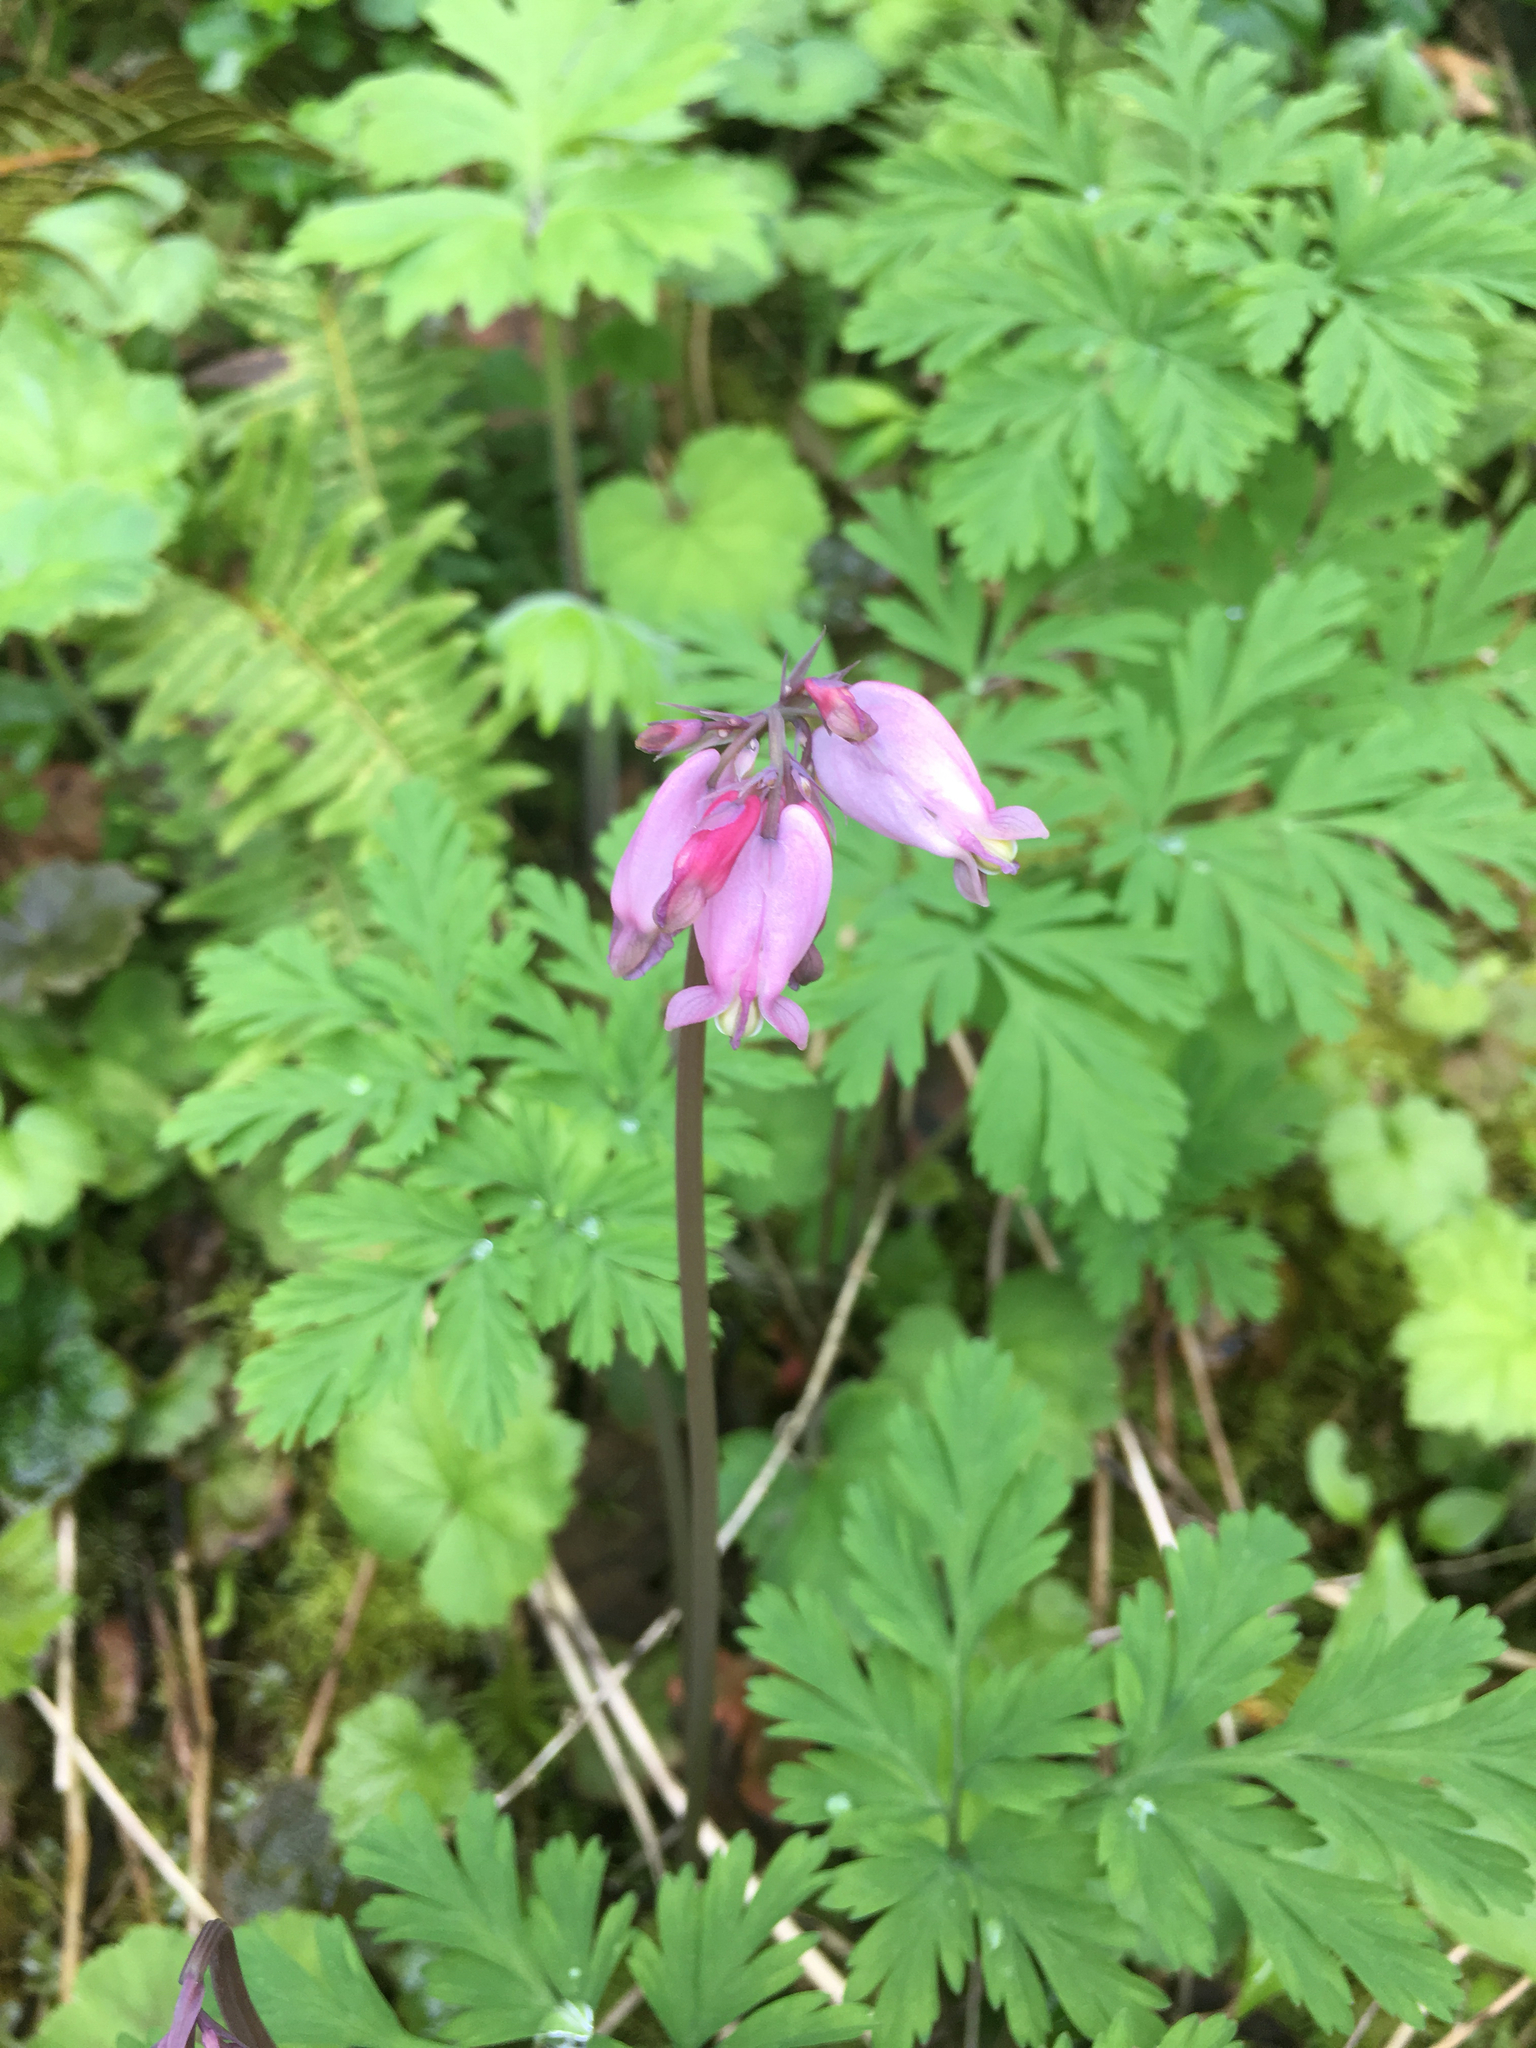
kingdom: Plantae
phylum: Tracheophyta
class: Magnoliopsida
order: Ranunculales
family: Papaveraceae
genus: Dicentra
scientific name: Dicentra formosa
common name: Bleeding-heart
